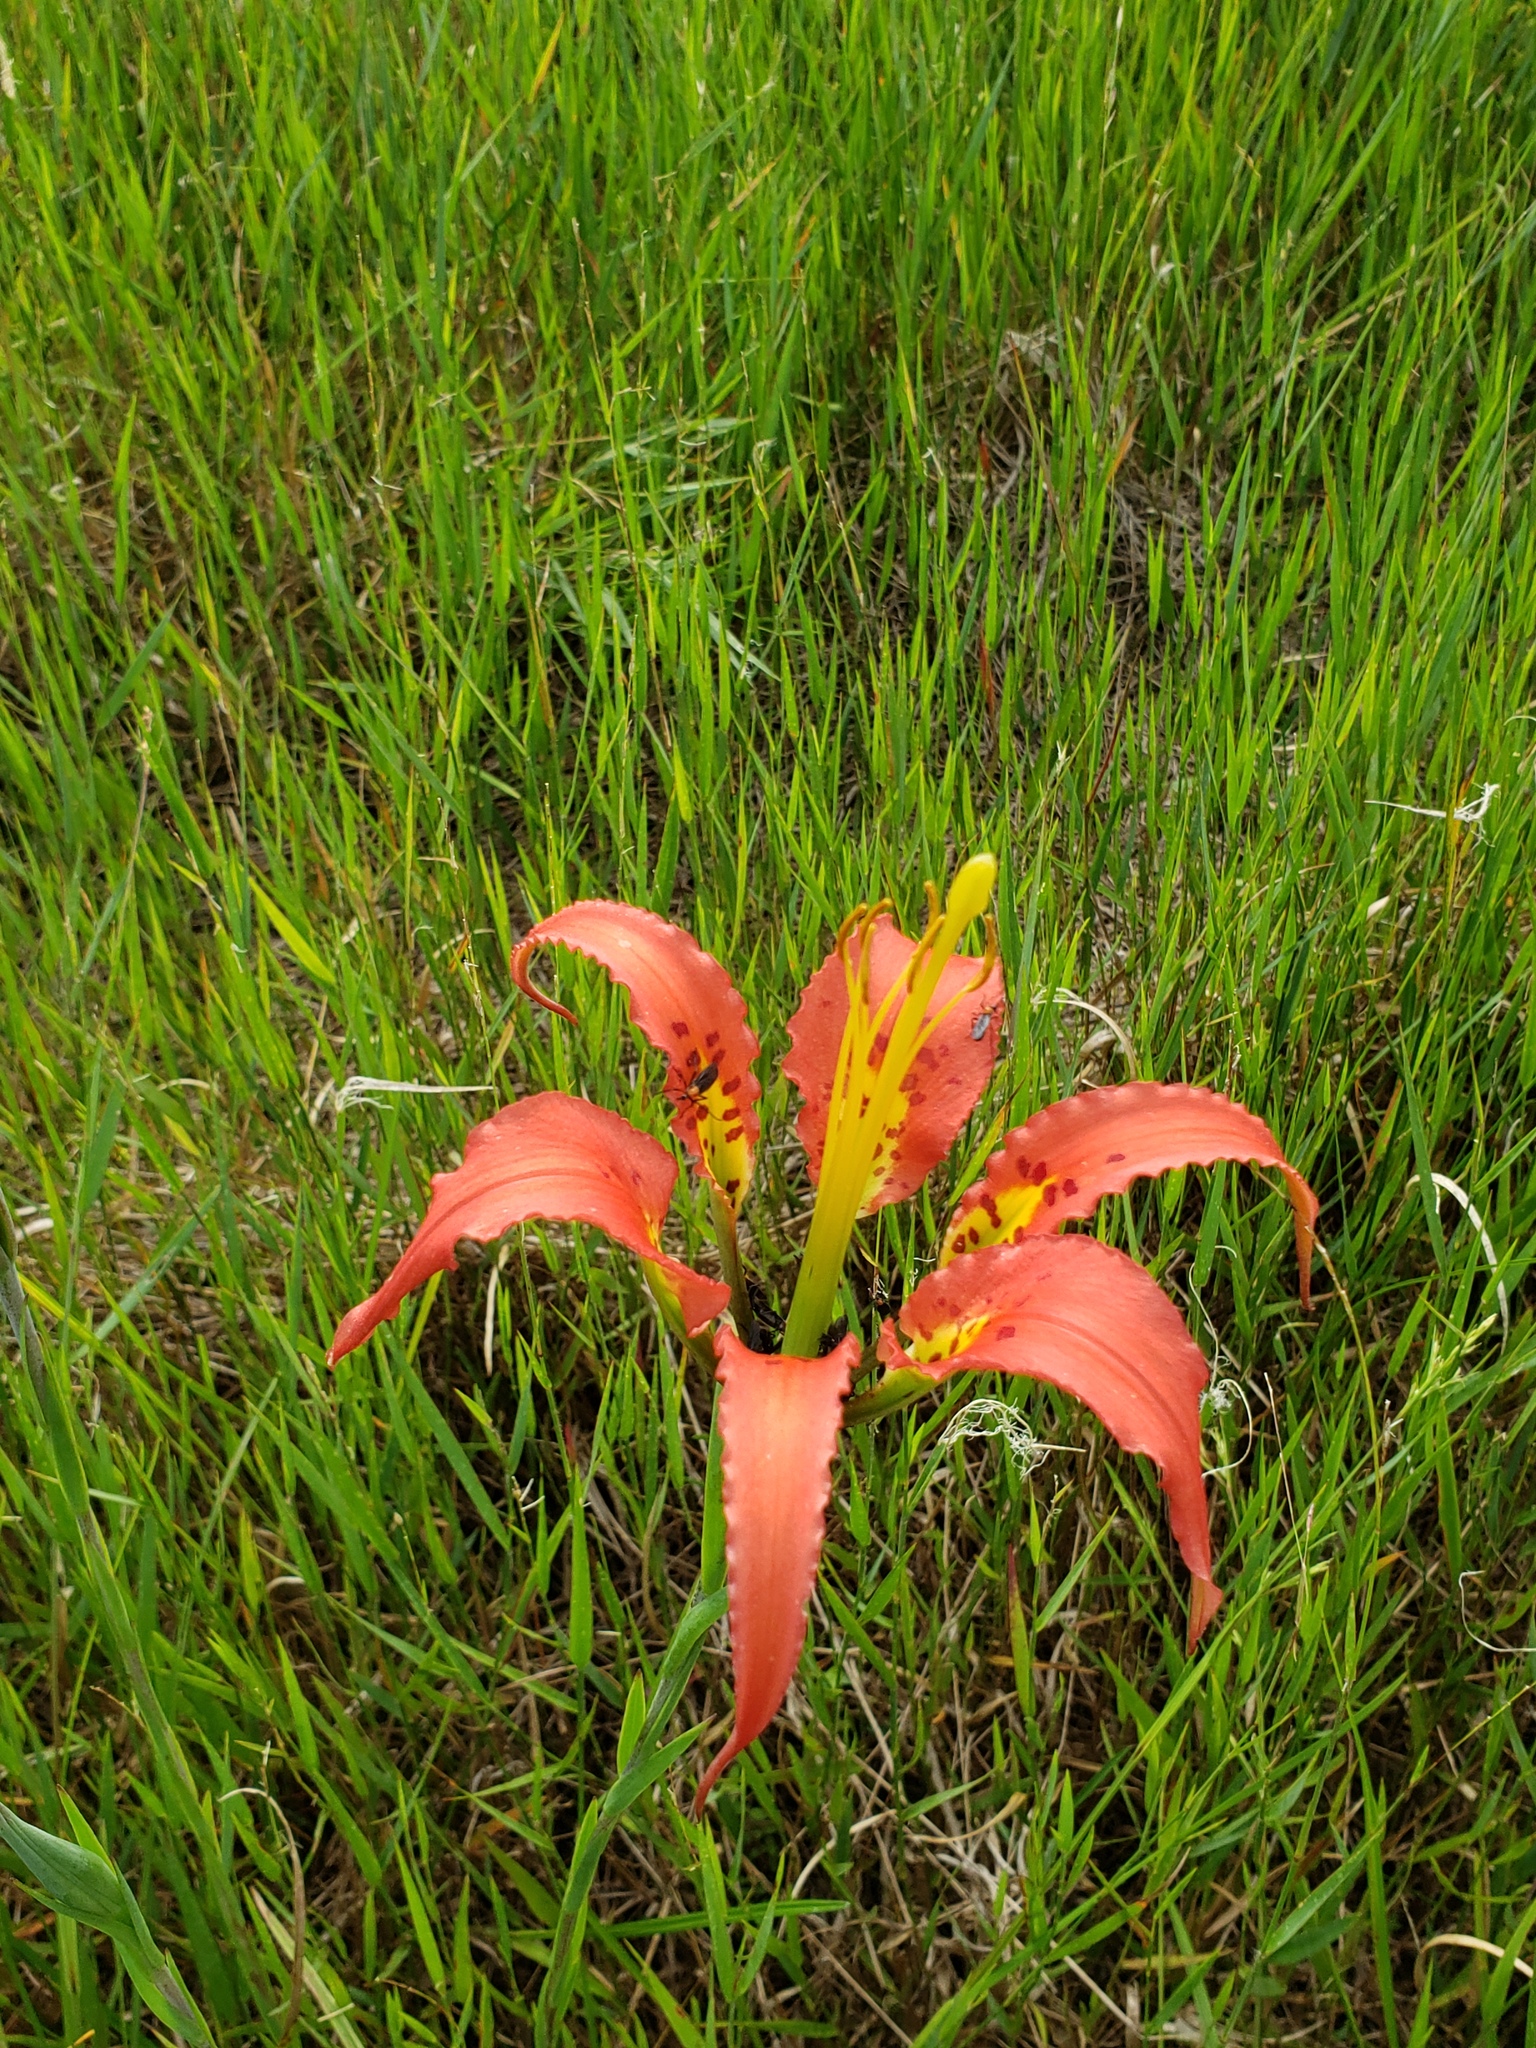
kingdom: Plantae
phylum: Tracheophyta
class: Liliopsida
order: Liliales
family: Liliaceae
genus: Lilium
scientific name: Lilium catesbaei
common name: Catesby's lily
